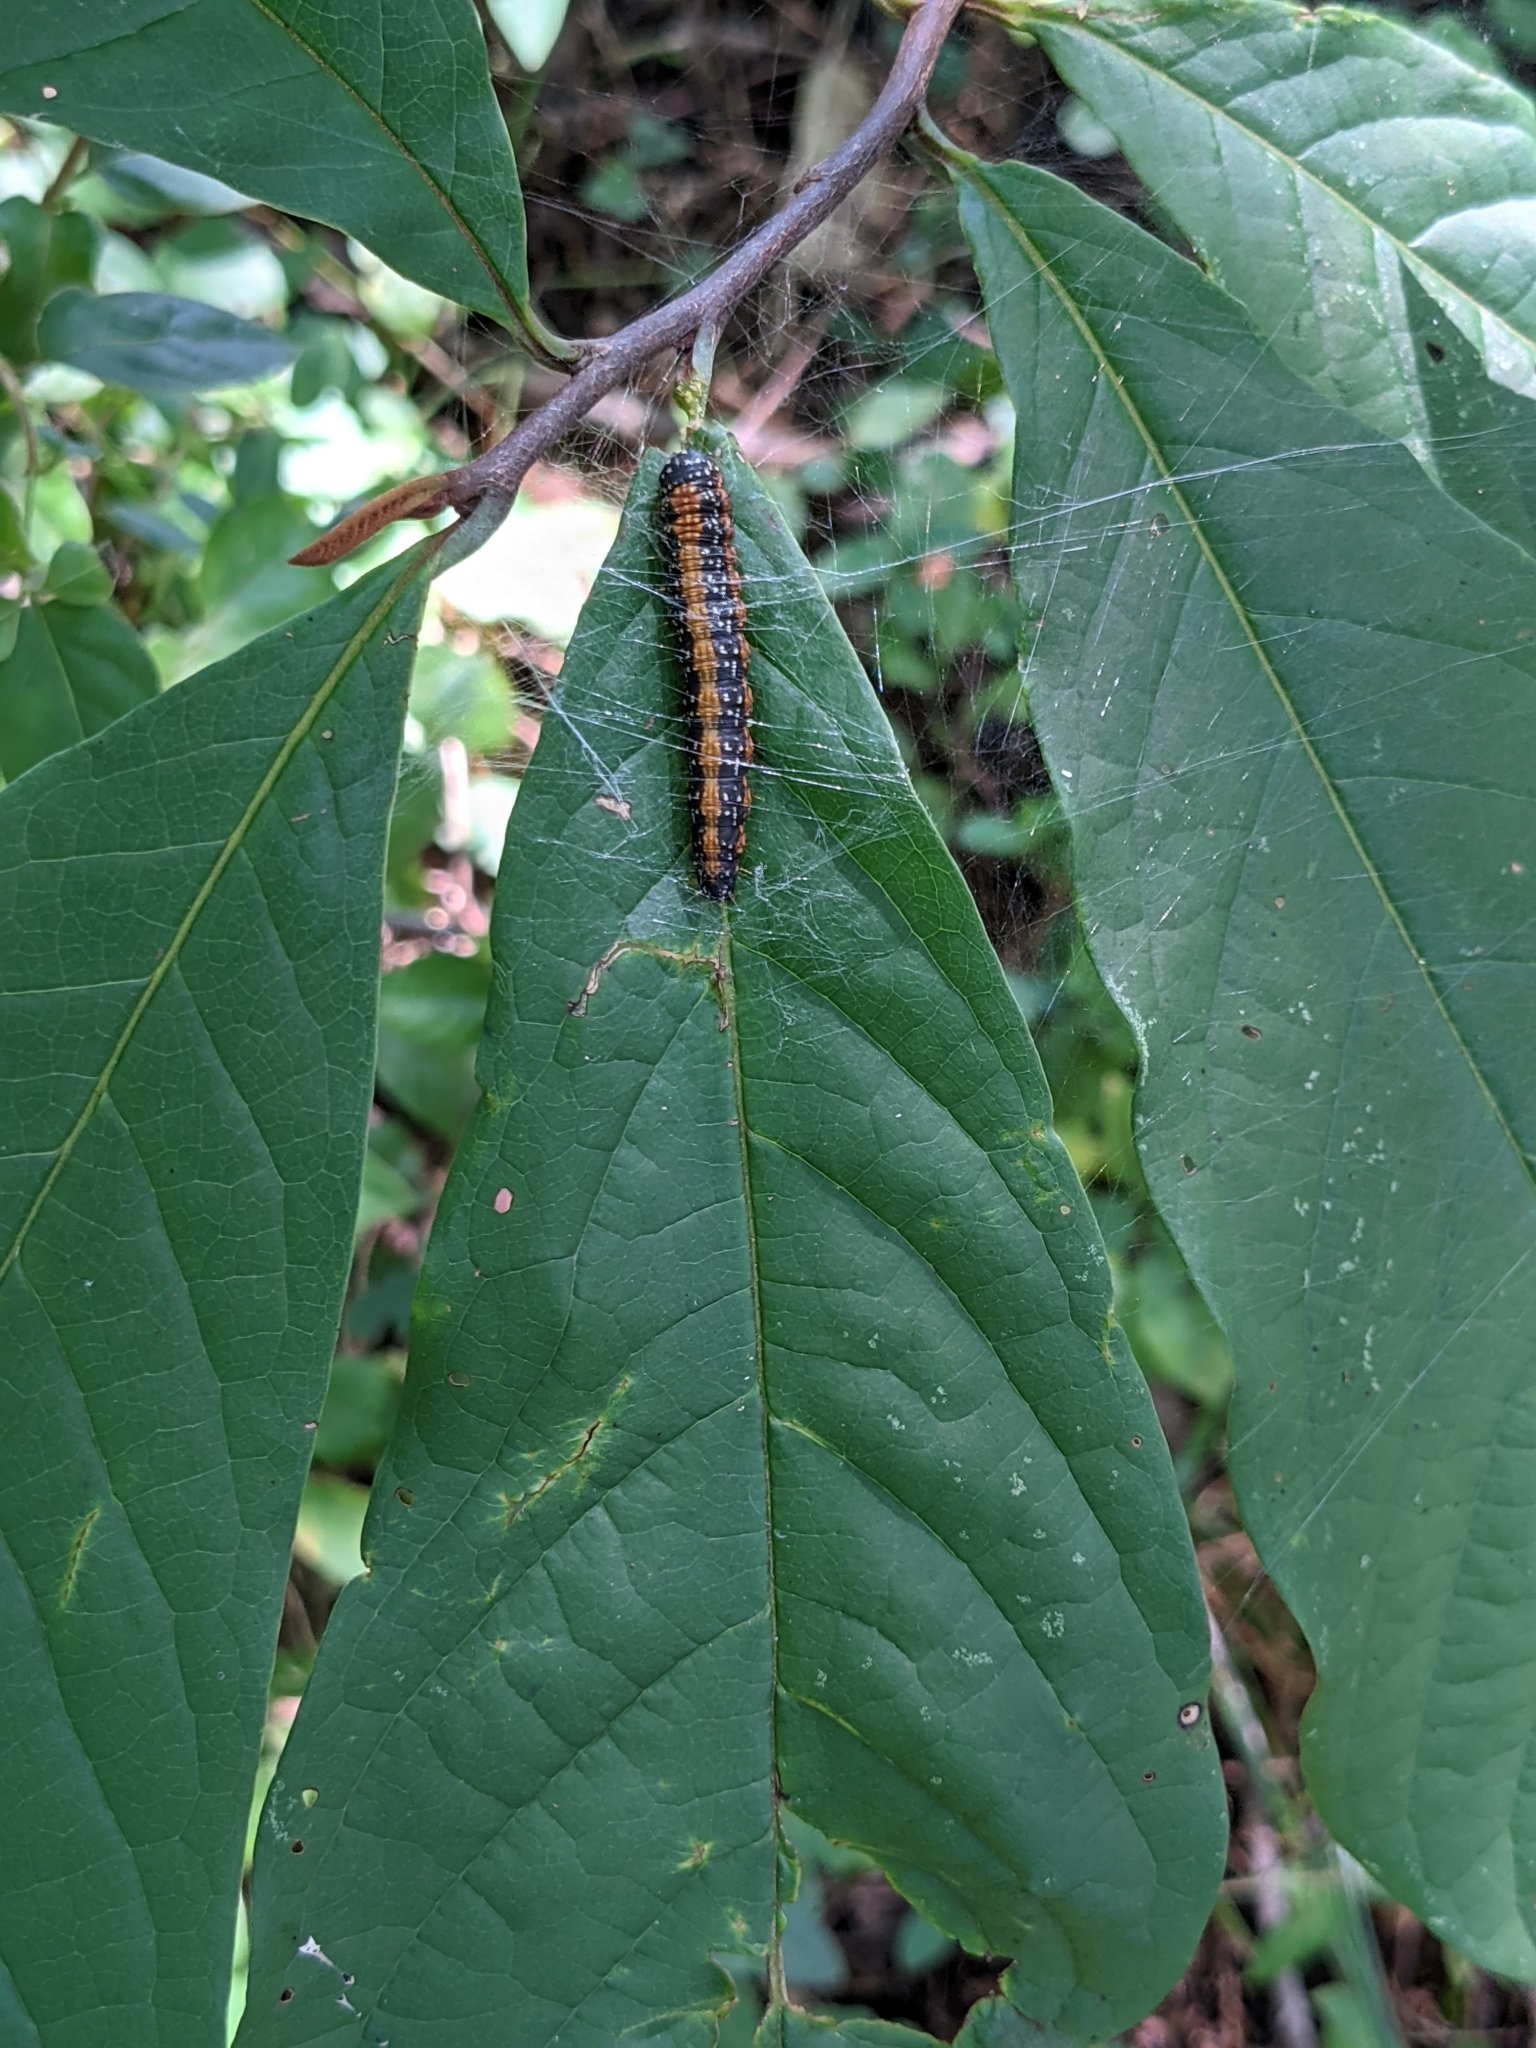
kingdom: Animalia
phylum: Arthropoda
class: Insecta
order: Lepidoptera
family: Pyralidae
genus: Omphalocera
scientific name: Omphalocera munroei
